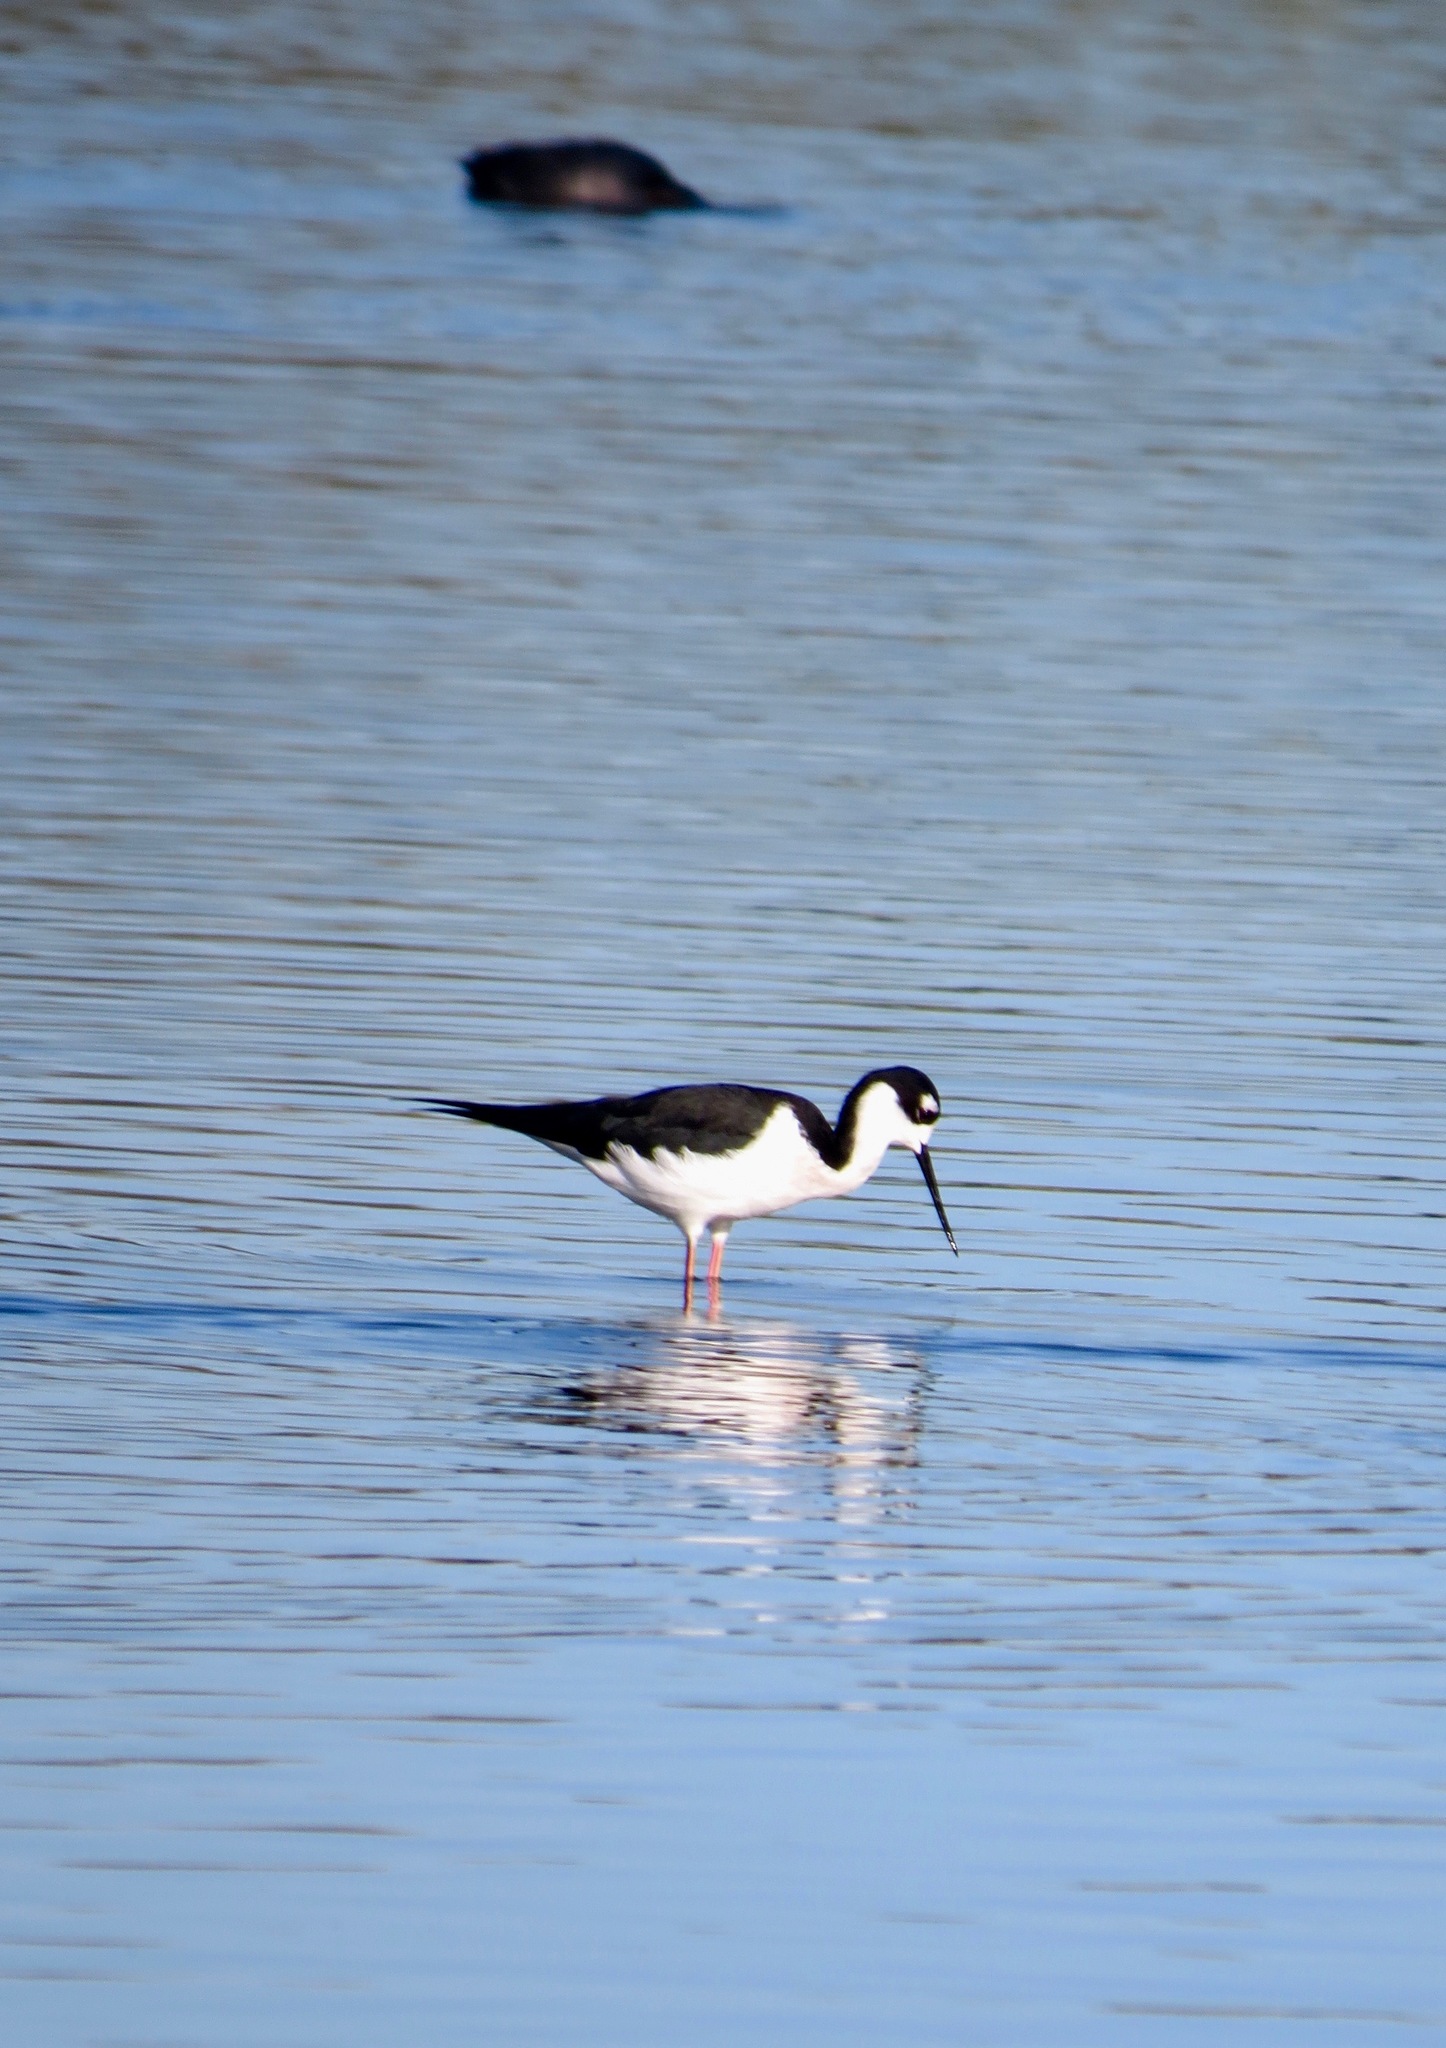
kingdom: Animalia
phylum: Chordata
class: Aves
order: Charadriiformes
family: Recurvirostridae
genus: Himantopus
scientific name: Himantopus mexicanus
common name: Black-necked stilt
